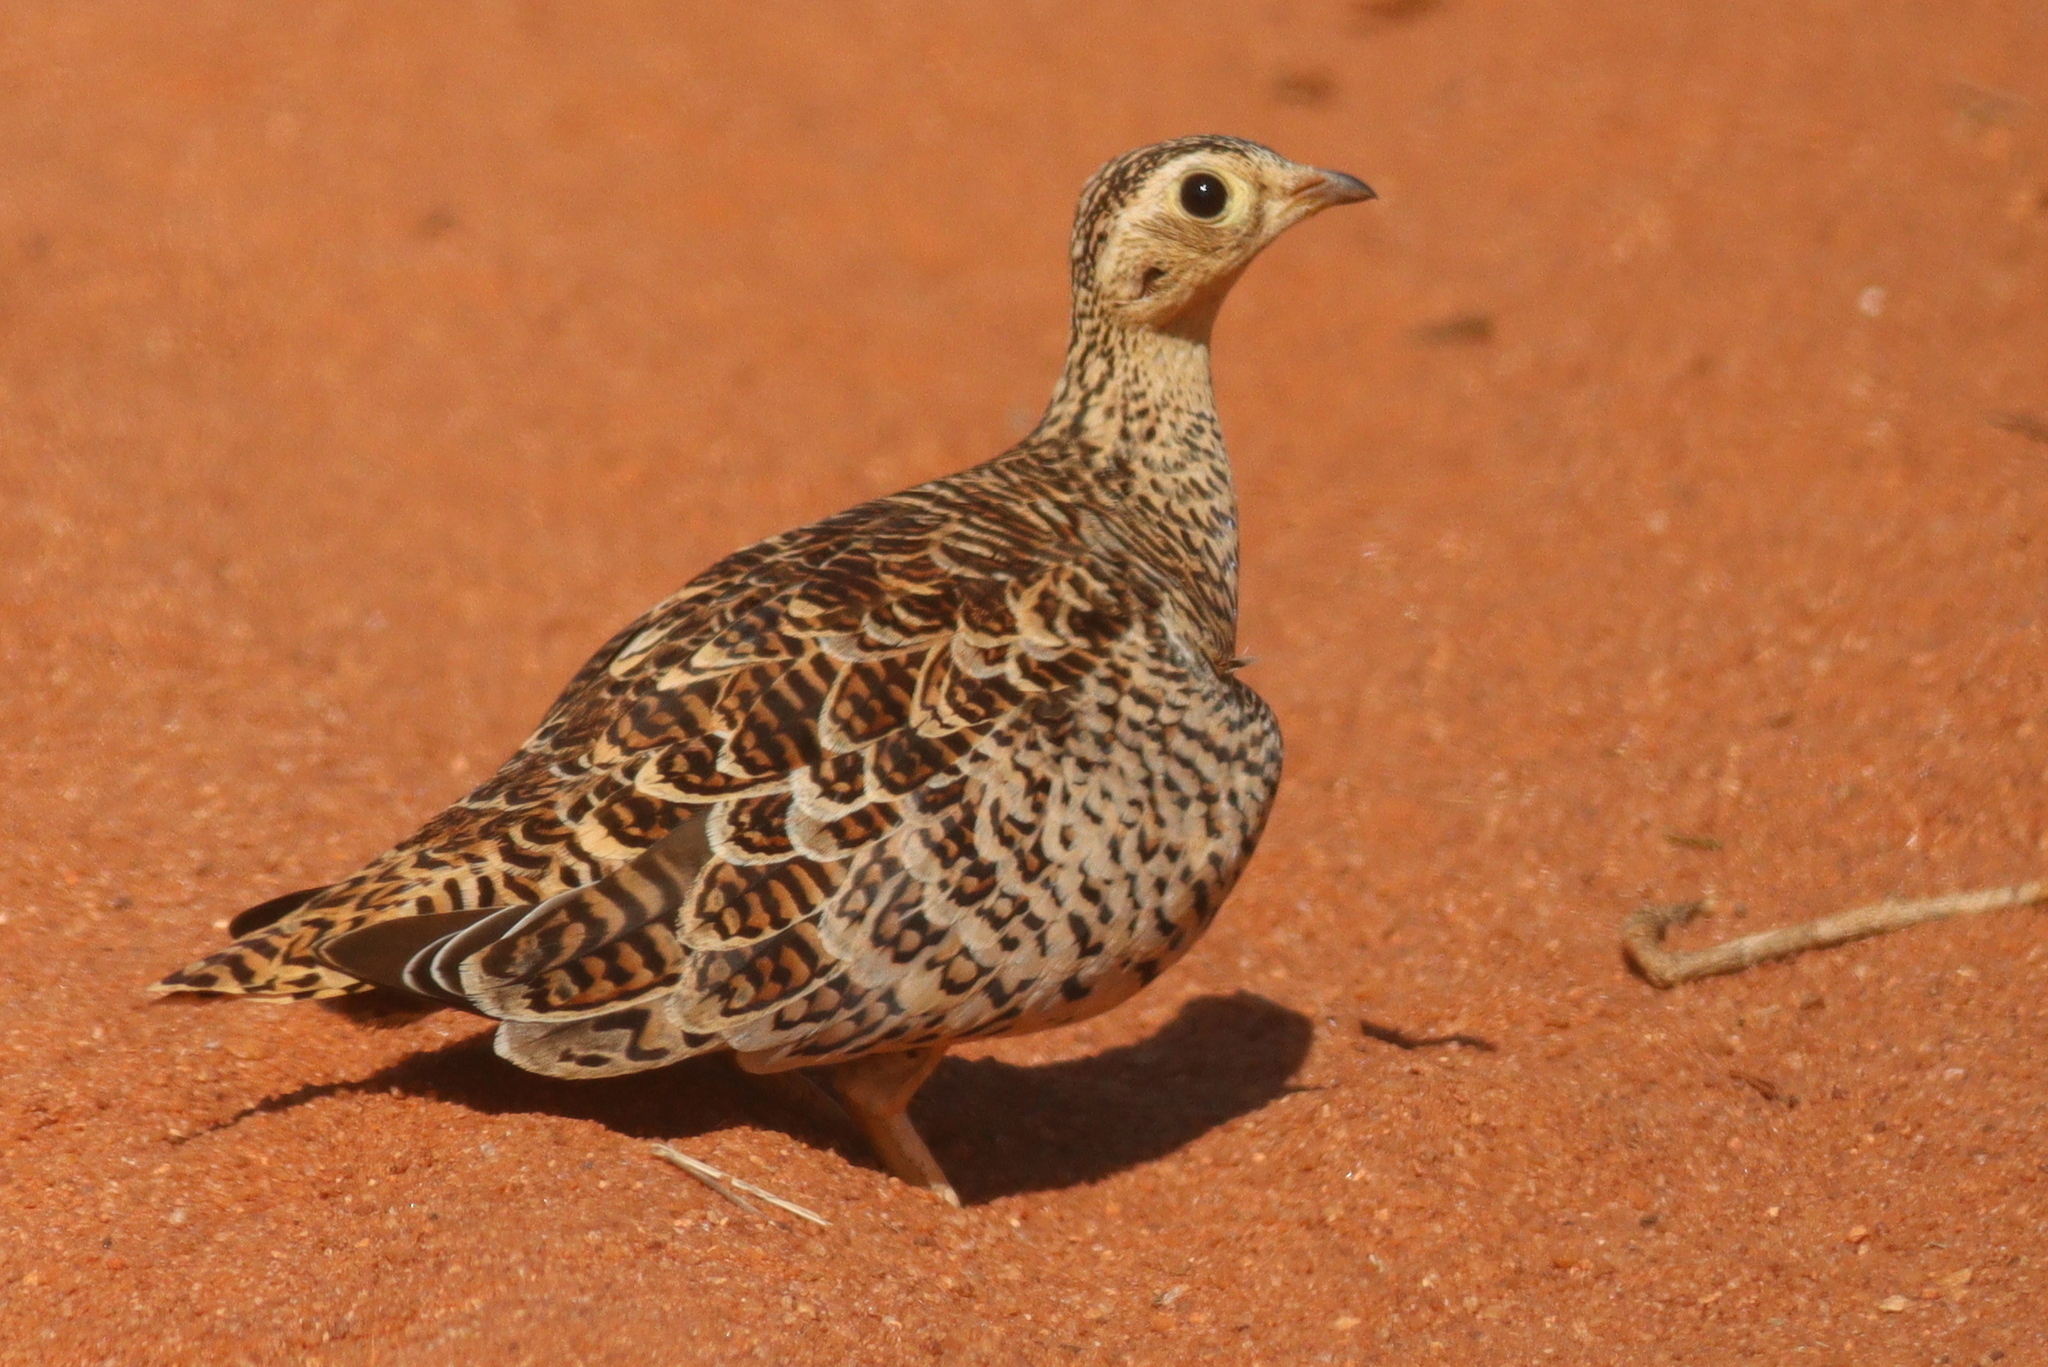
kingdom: Animalia
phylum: Chordata
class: Aves
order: Pteroclidiformes
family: Pteroclididae
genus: Pterocles
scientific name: Pterocles decoratus
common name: Black-faced sandgrouse
